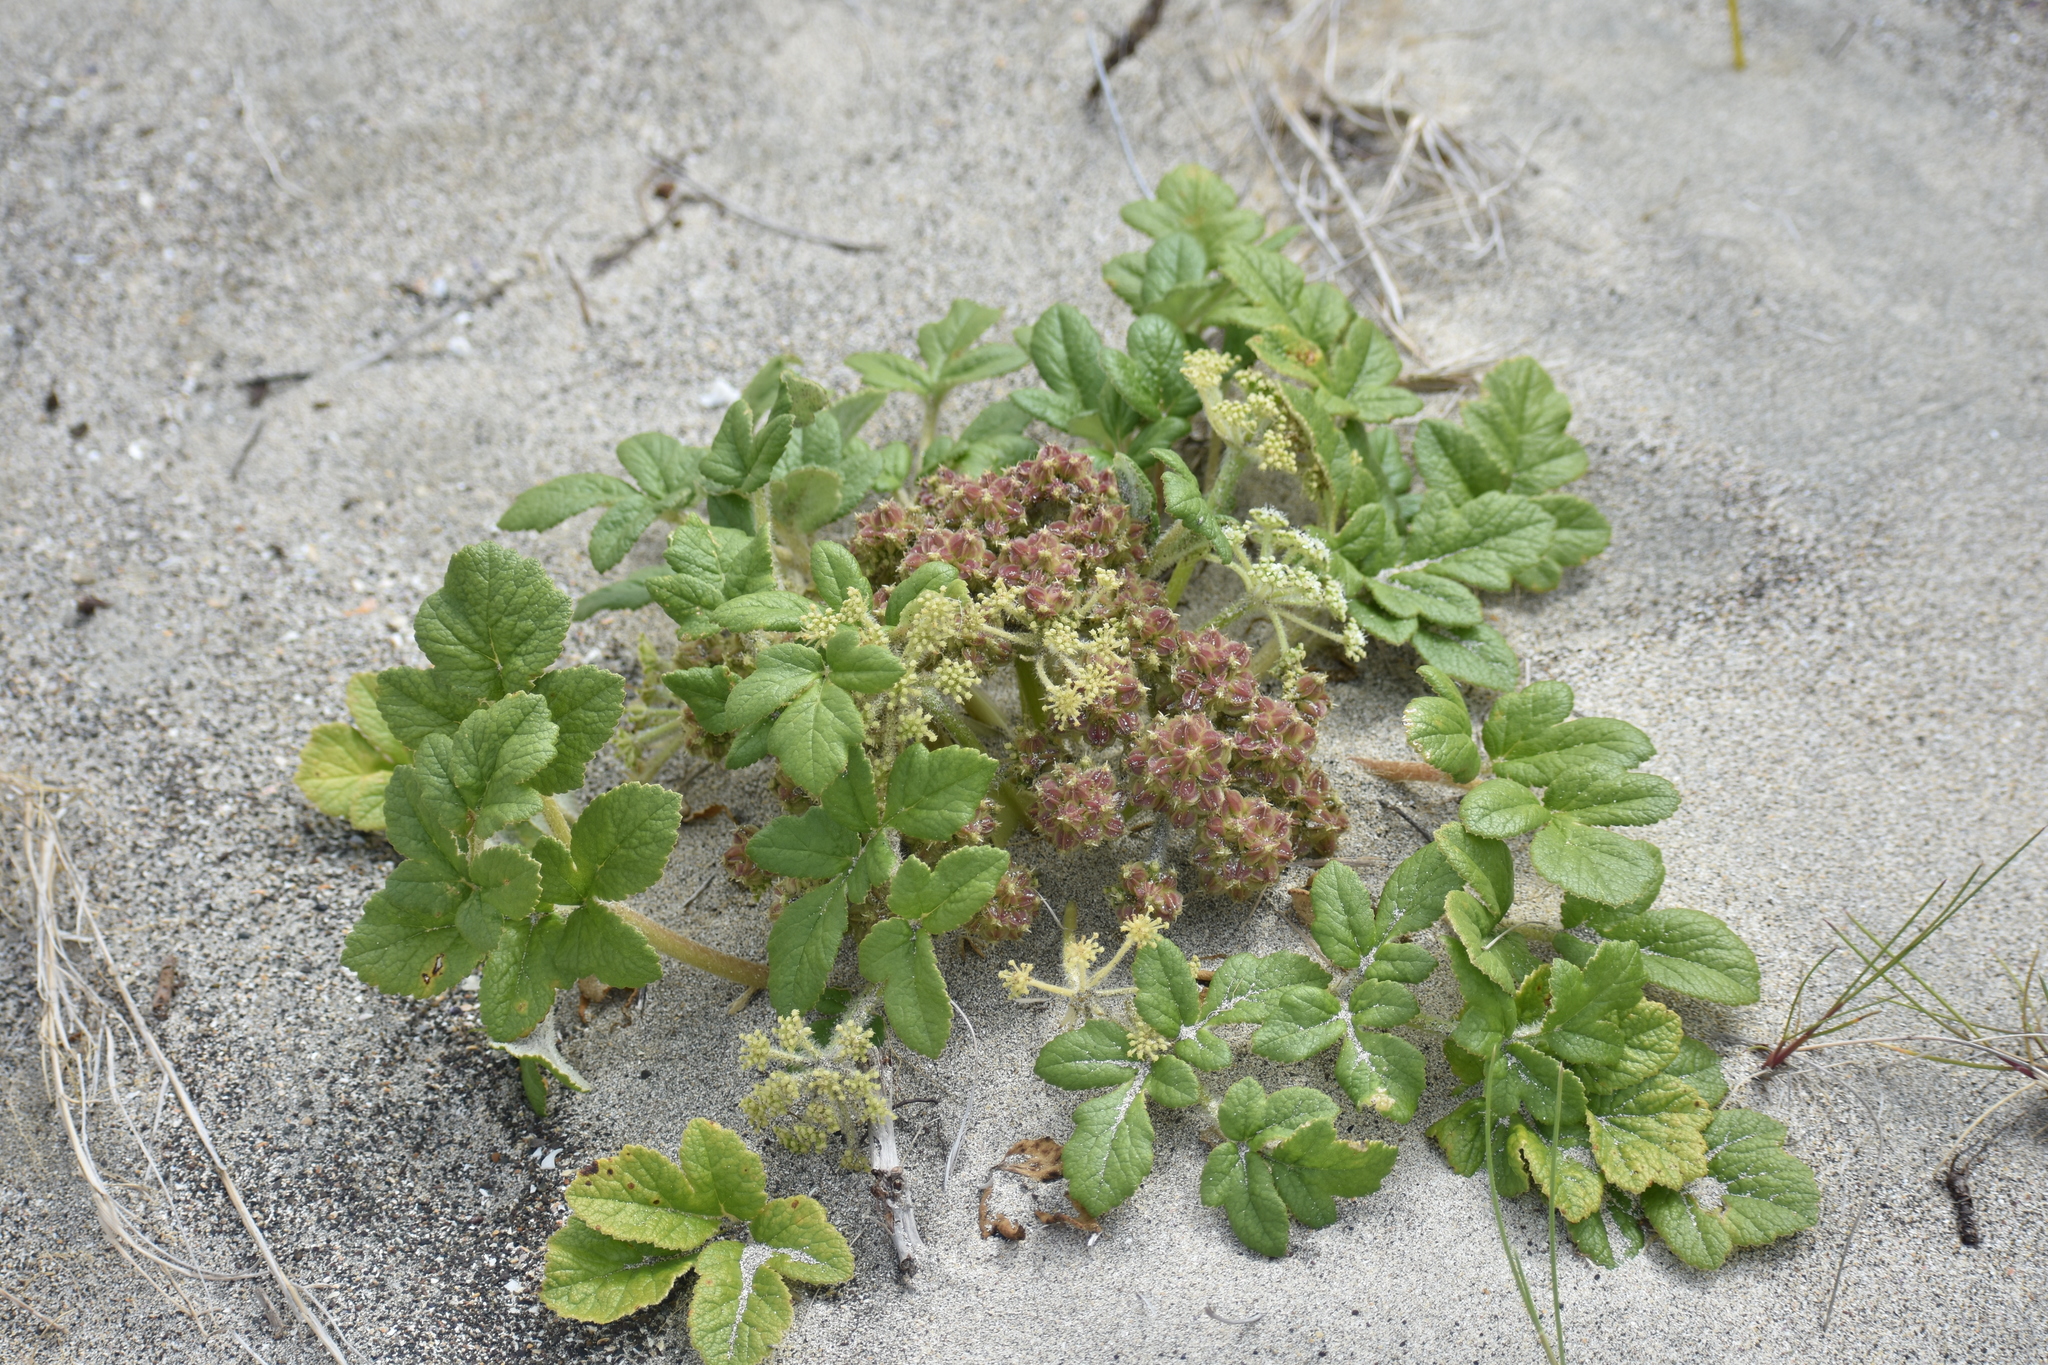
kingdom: Plantae
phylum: Tracheophyta
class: Magnoliopsida
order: Apiales
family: Apiaceae
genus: Glehnia
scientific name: Glehnia littoralis
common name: Beach silvertop
